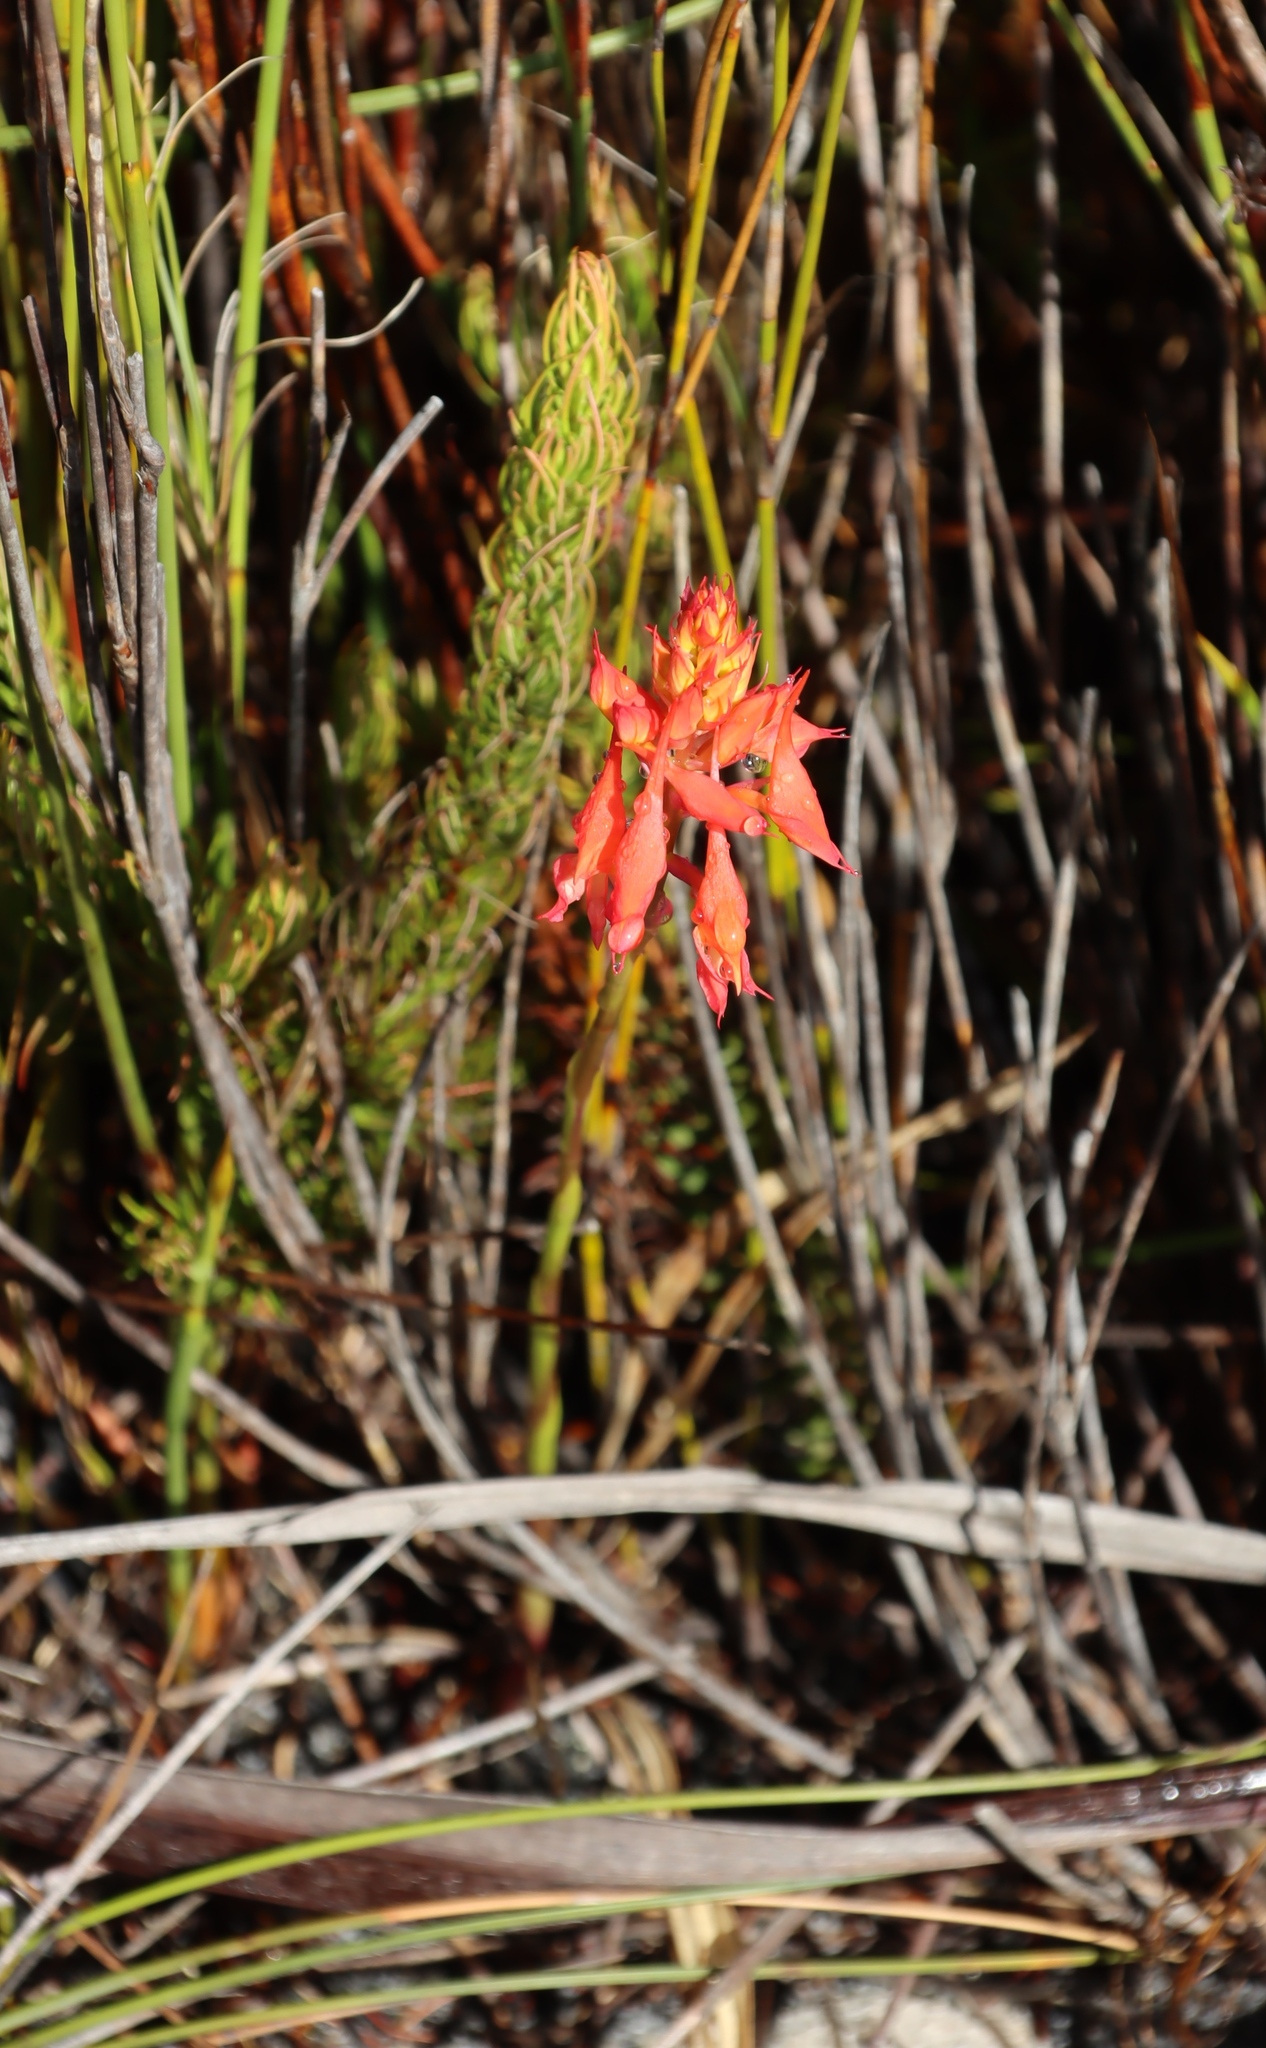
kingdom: Plantae
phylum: Tracheophyta
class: Liliopsida
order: Asparagales
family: Orchidaceae
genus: Disa
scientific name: Disa ferruginea
